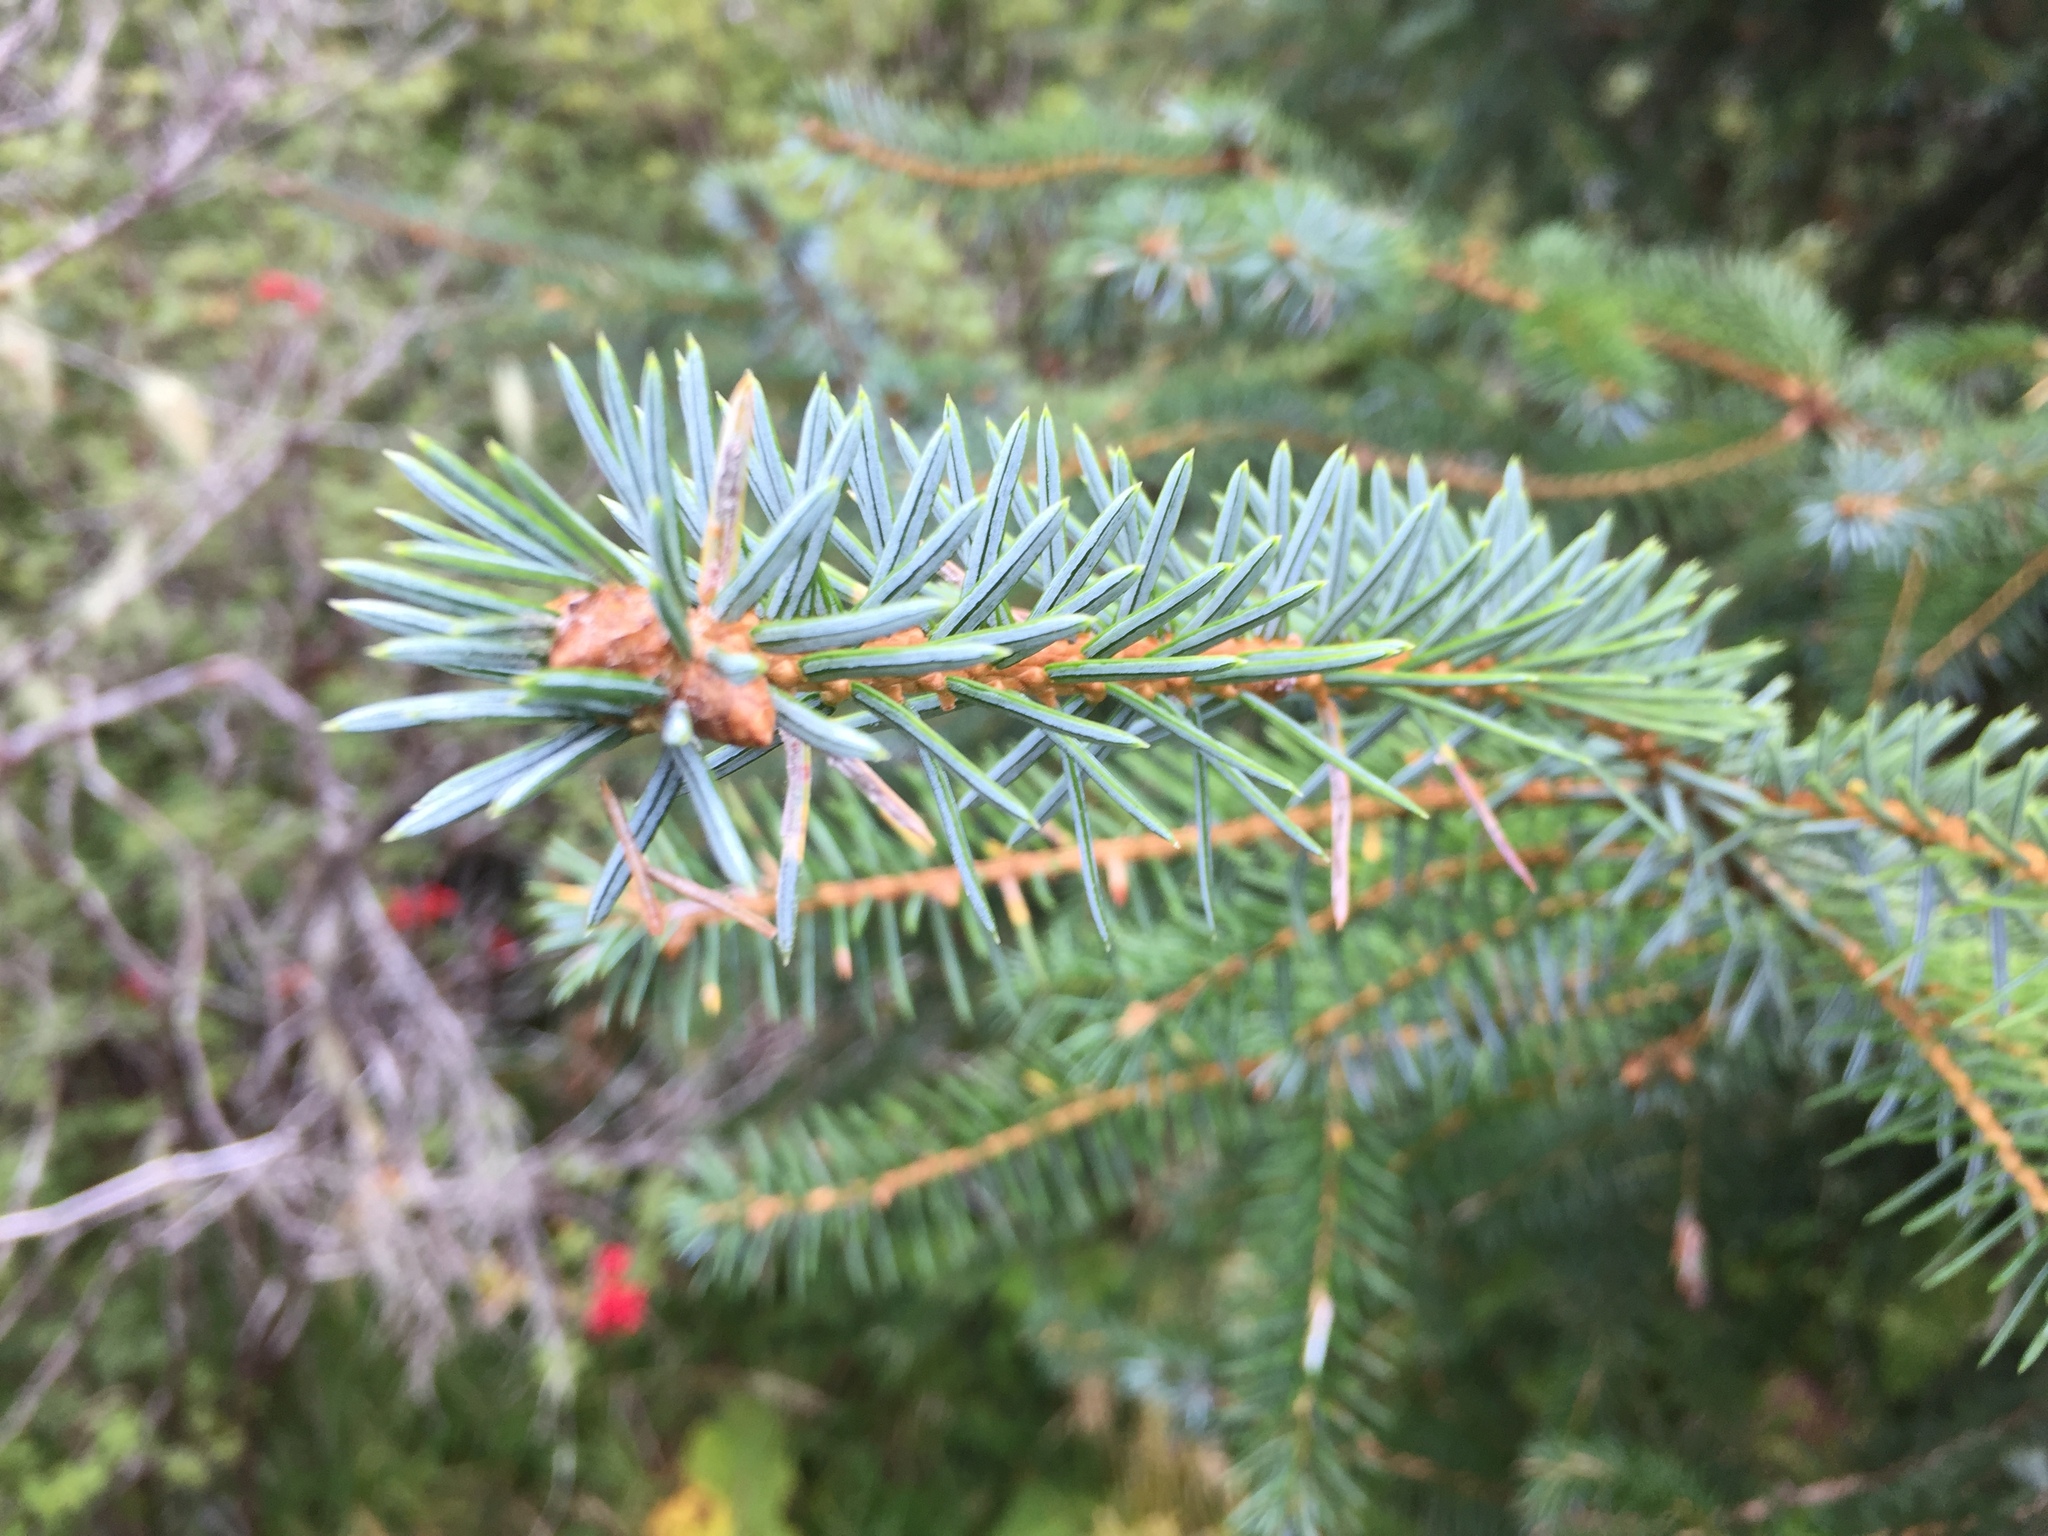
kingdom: Plantae
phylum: Tracheophyta
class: Pinopsida
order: Pinales
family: Pinaceae
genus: Picea
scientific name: Picea sitchensis
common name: Sitka spruce
